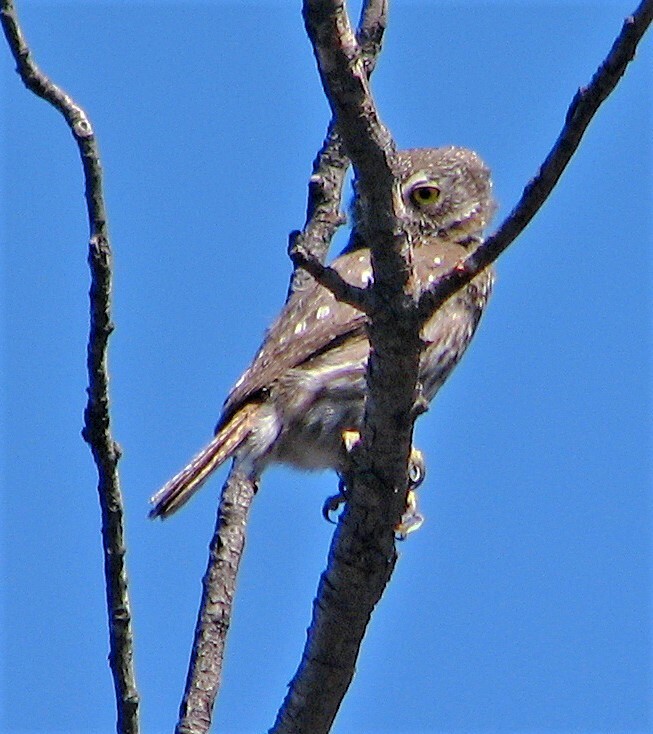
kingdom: Animalia
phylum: Chordata
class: Aves
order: Strigiformes
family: Strigidae
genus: Glaucidium
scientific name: Glaucidium brasilianum
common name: Ferruginous pygmy-owl
